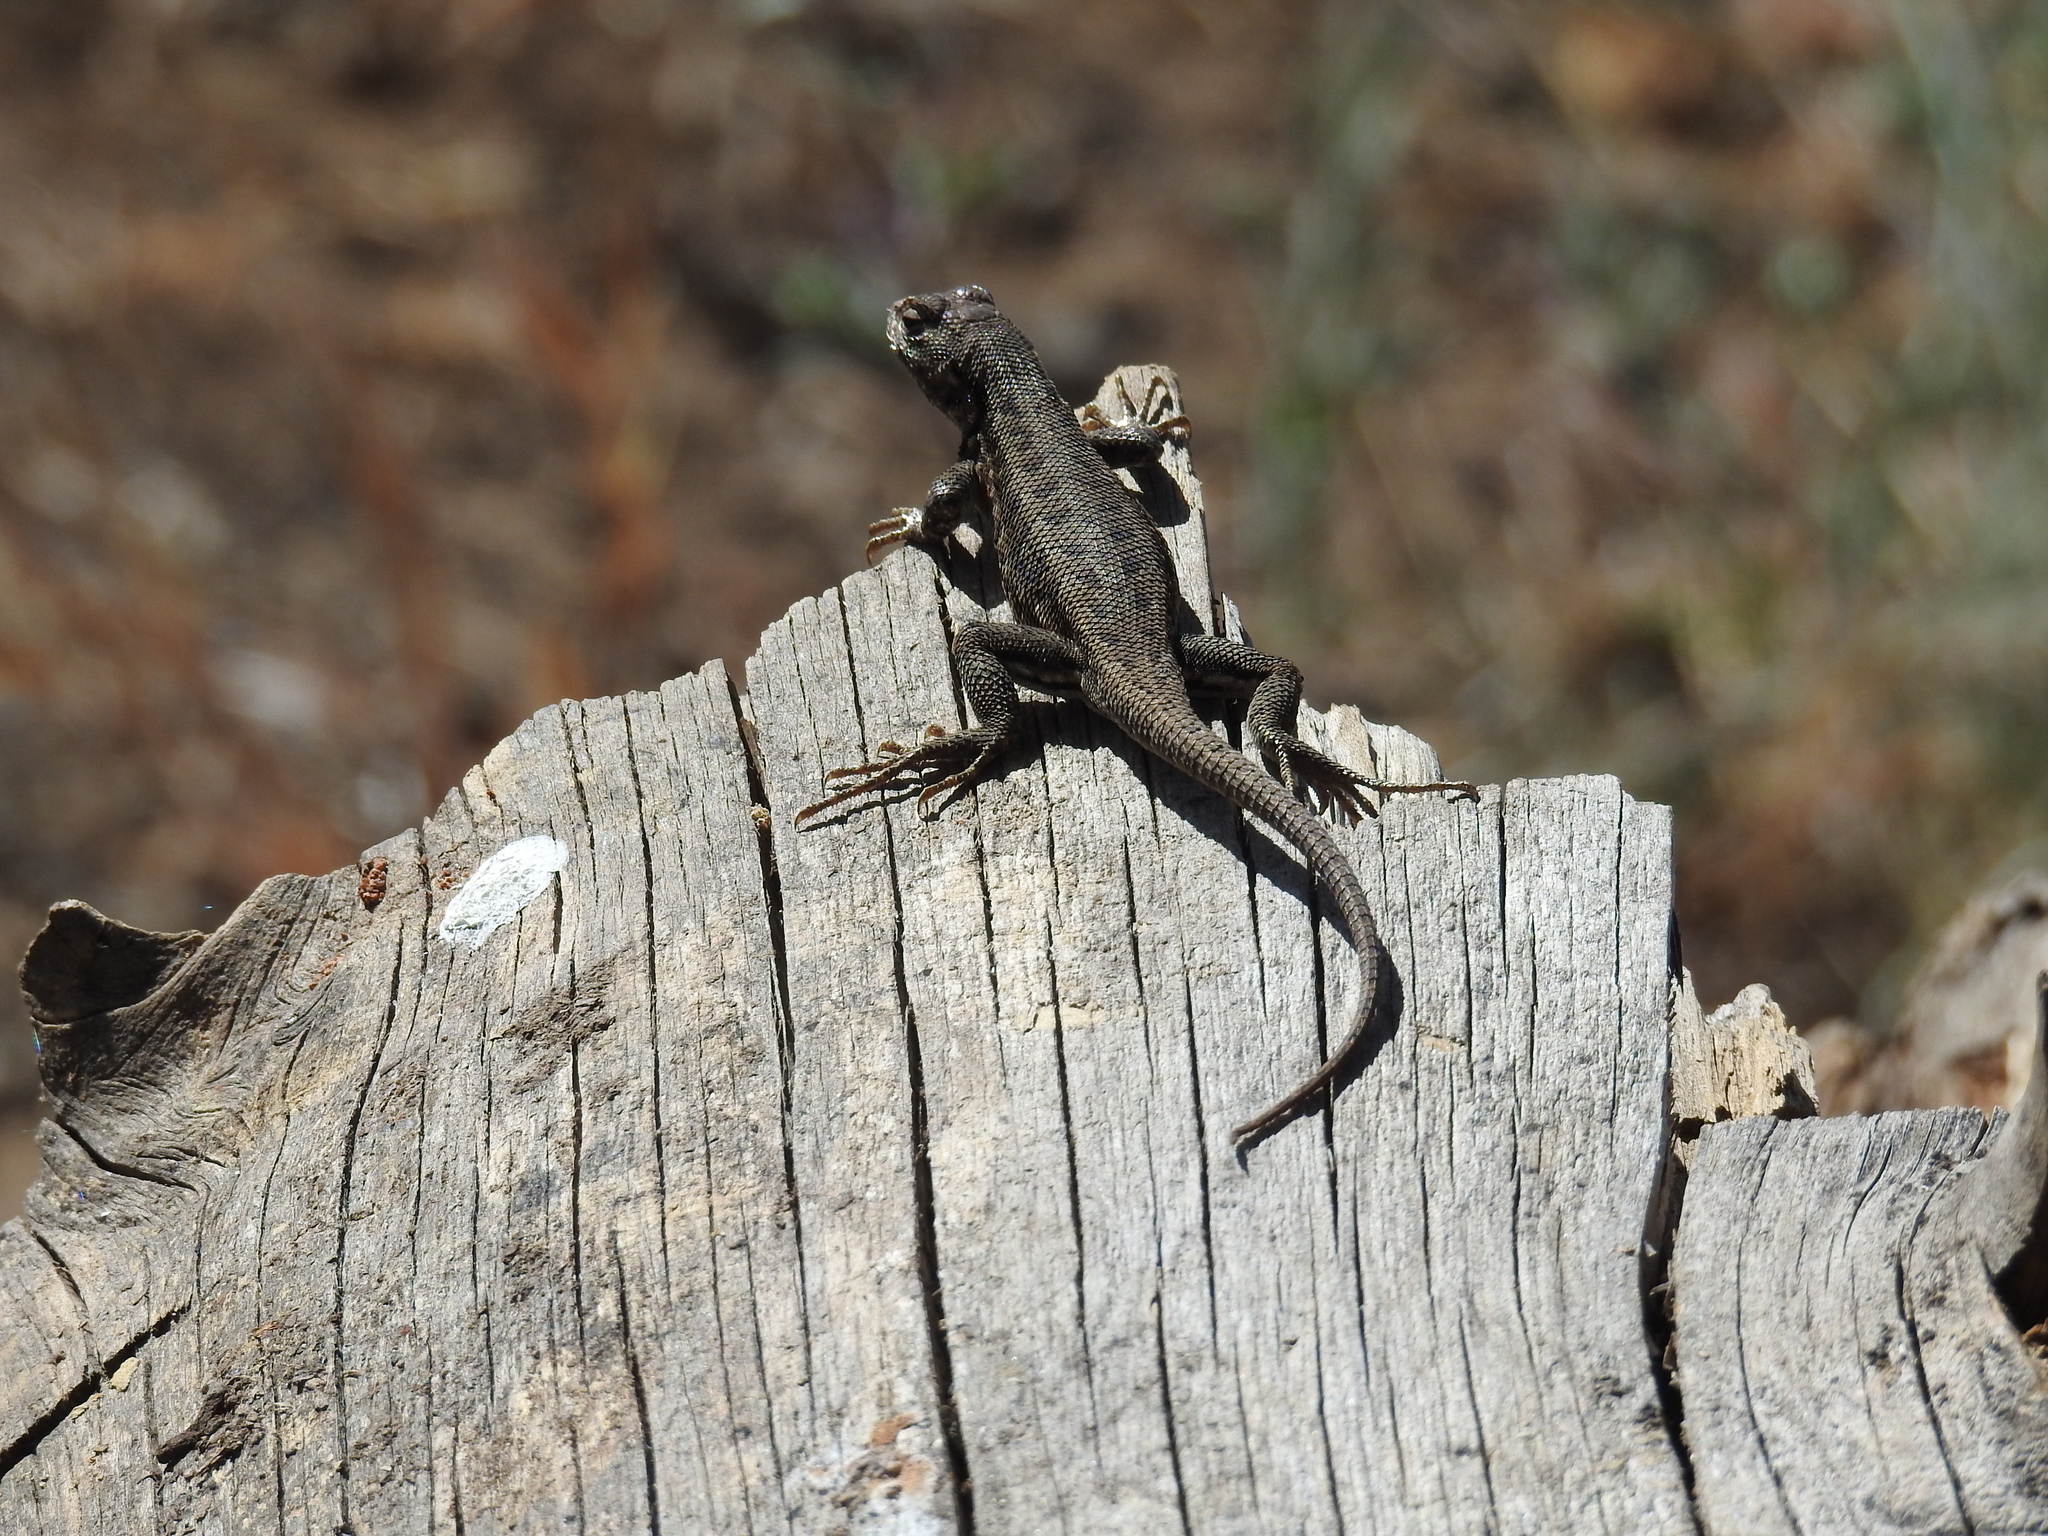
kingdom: Animalia
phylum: Chordata
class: Squamata
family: Phrynosomatidae
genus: Sceloporus
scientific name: Sceloporus graciosus
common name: Sagebrush lizard
